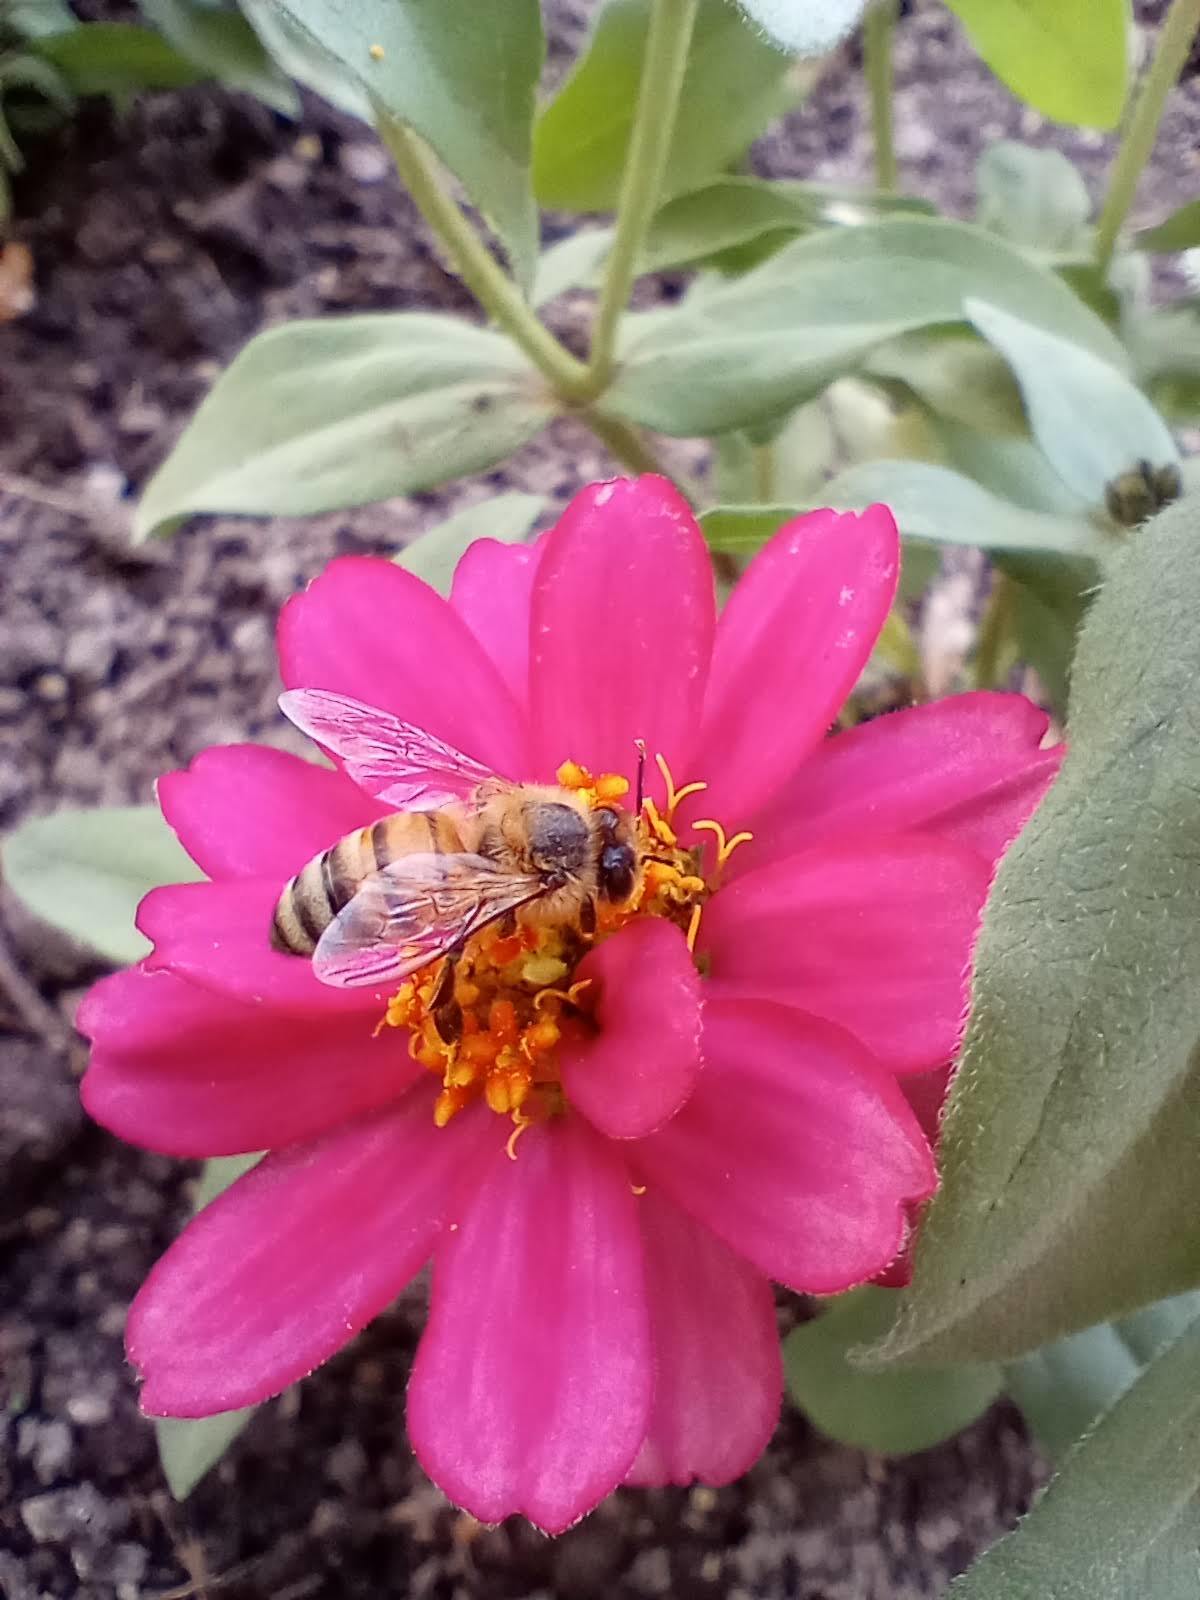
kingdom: Animalia
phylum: Arthropoda
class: Insecta
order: Hymenoptera
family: Apidae
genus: Apis
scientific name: Apis mellifera
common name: Honey bee
